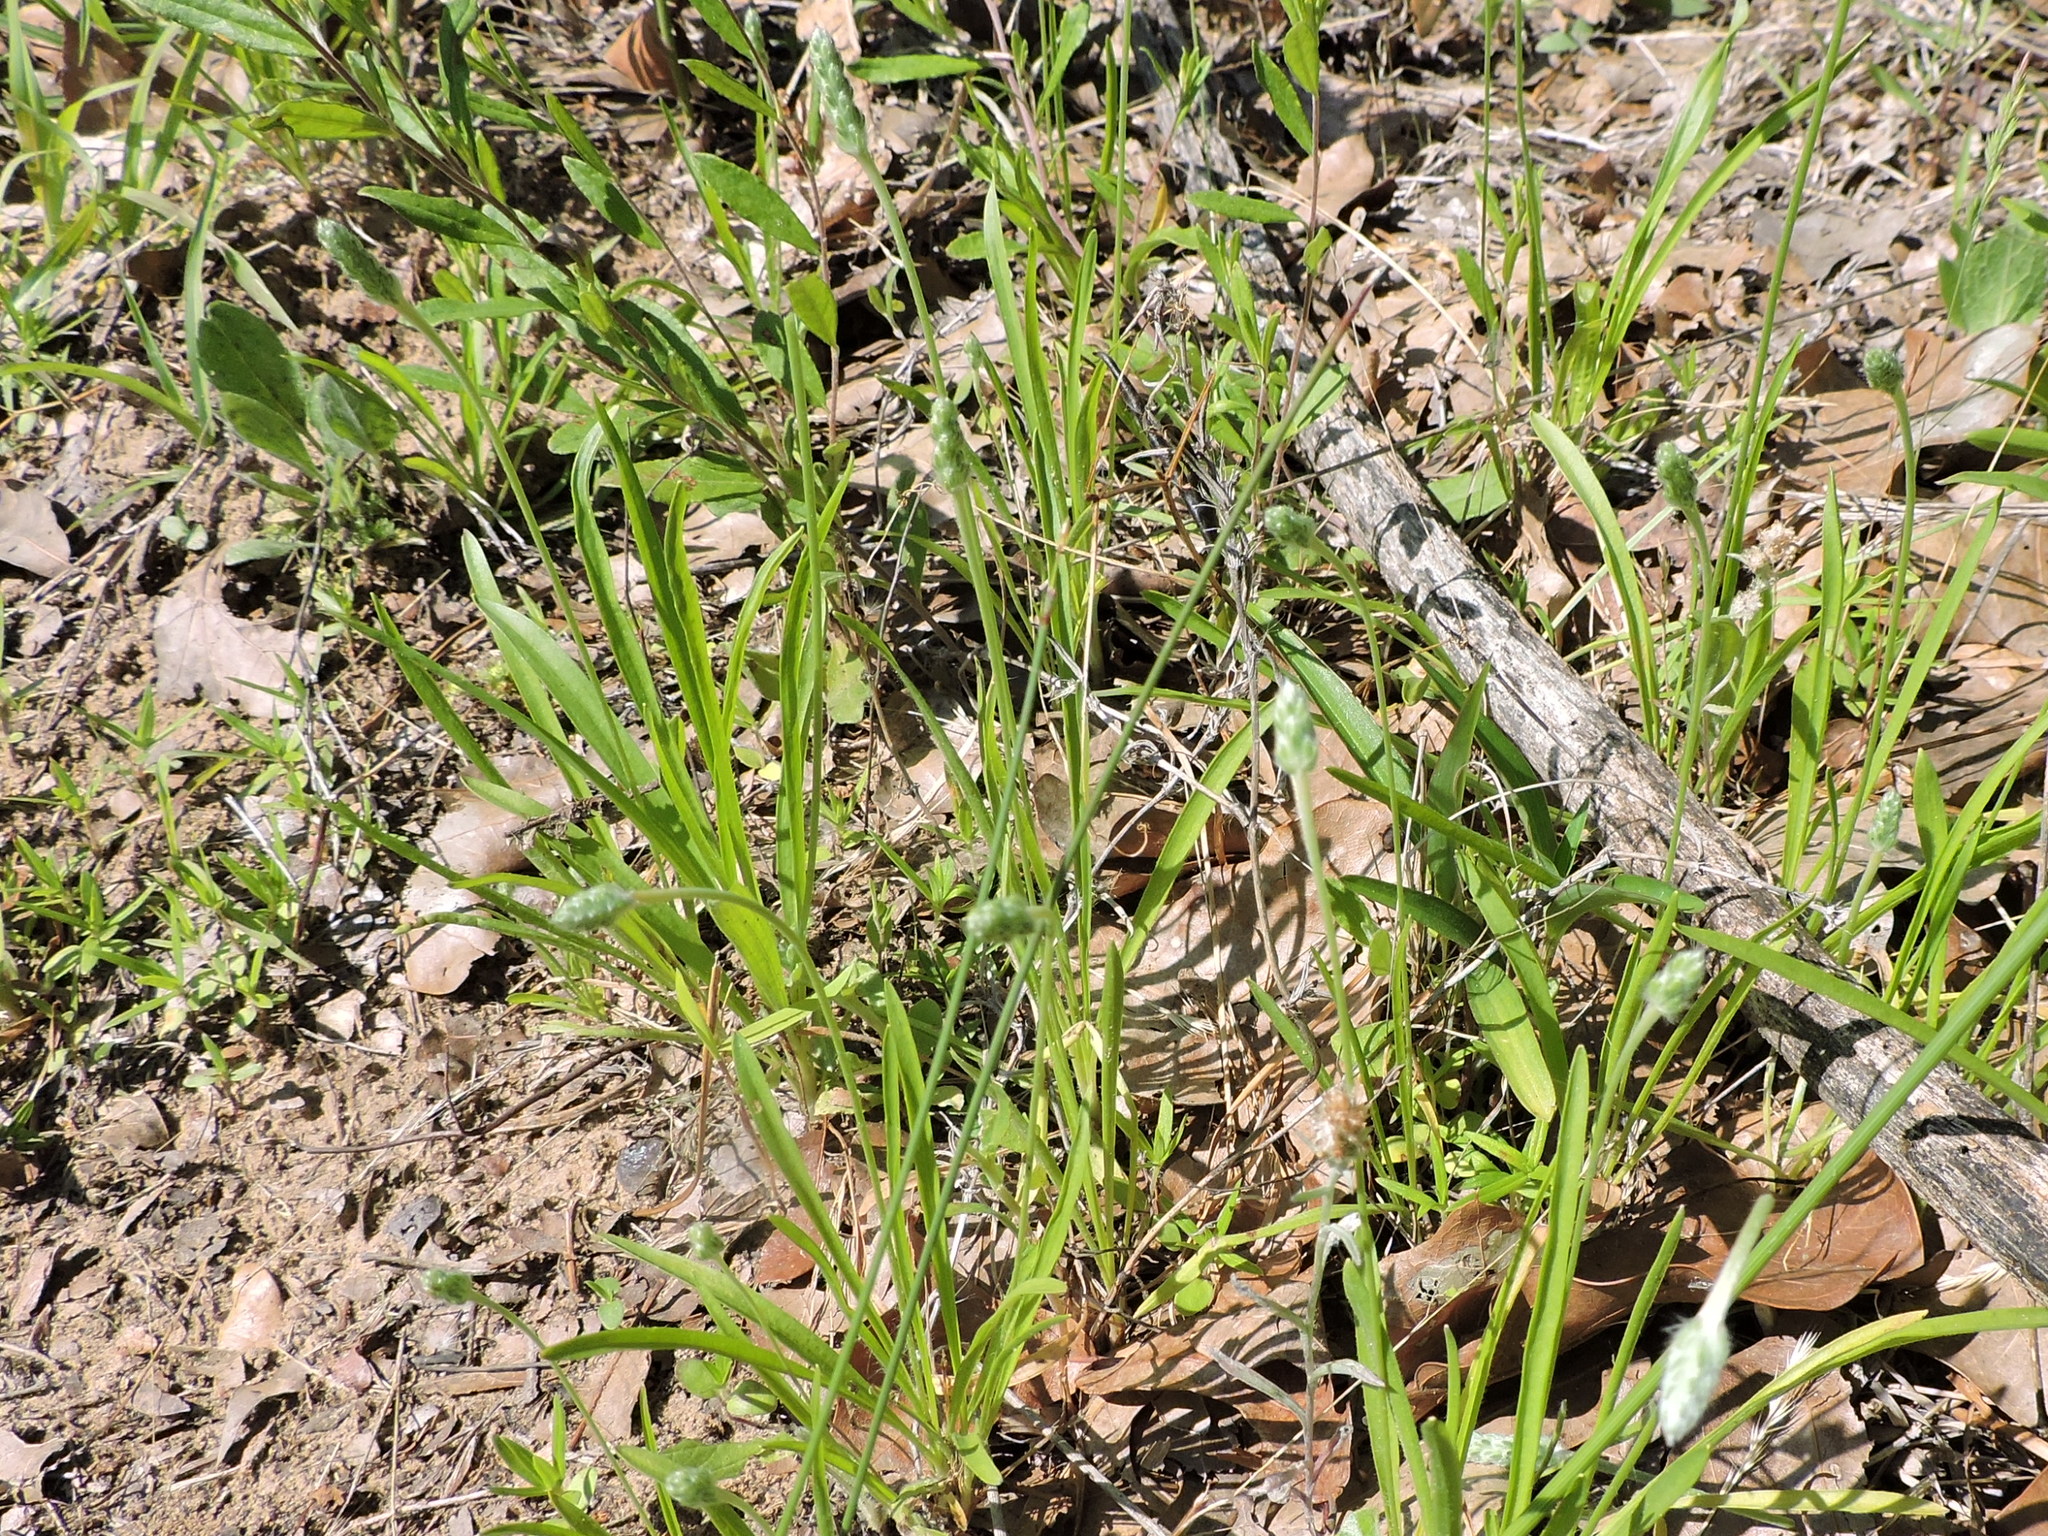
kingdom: Plantae
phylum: Tracheophyta
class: Magnoliopsida
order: Lamiales
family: Plantaginaceae
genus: Plantago
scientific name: Plantago wrightiana
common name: Wright's plantain
